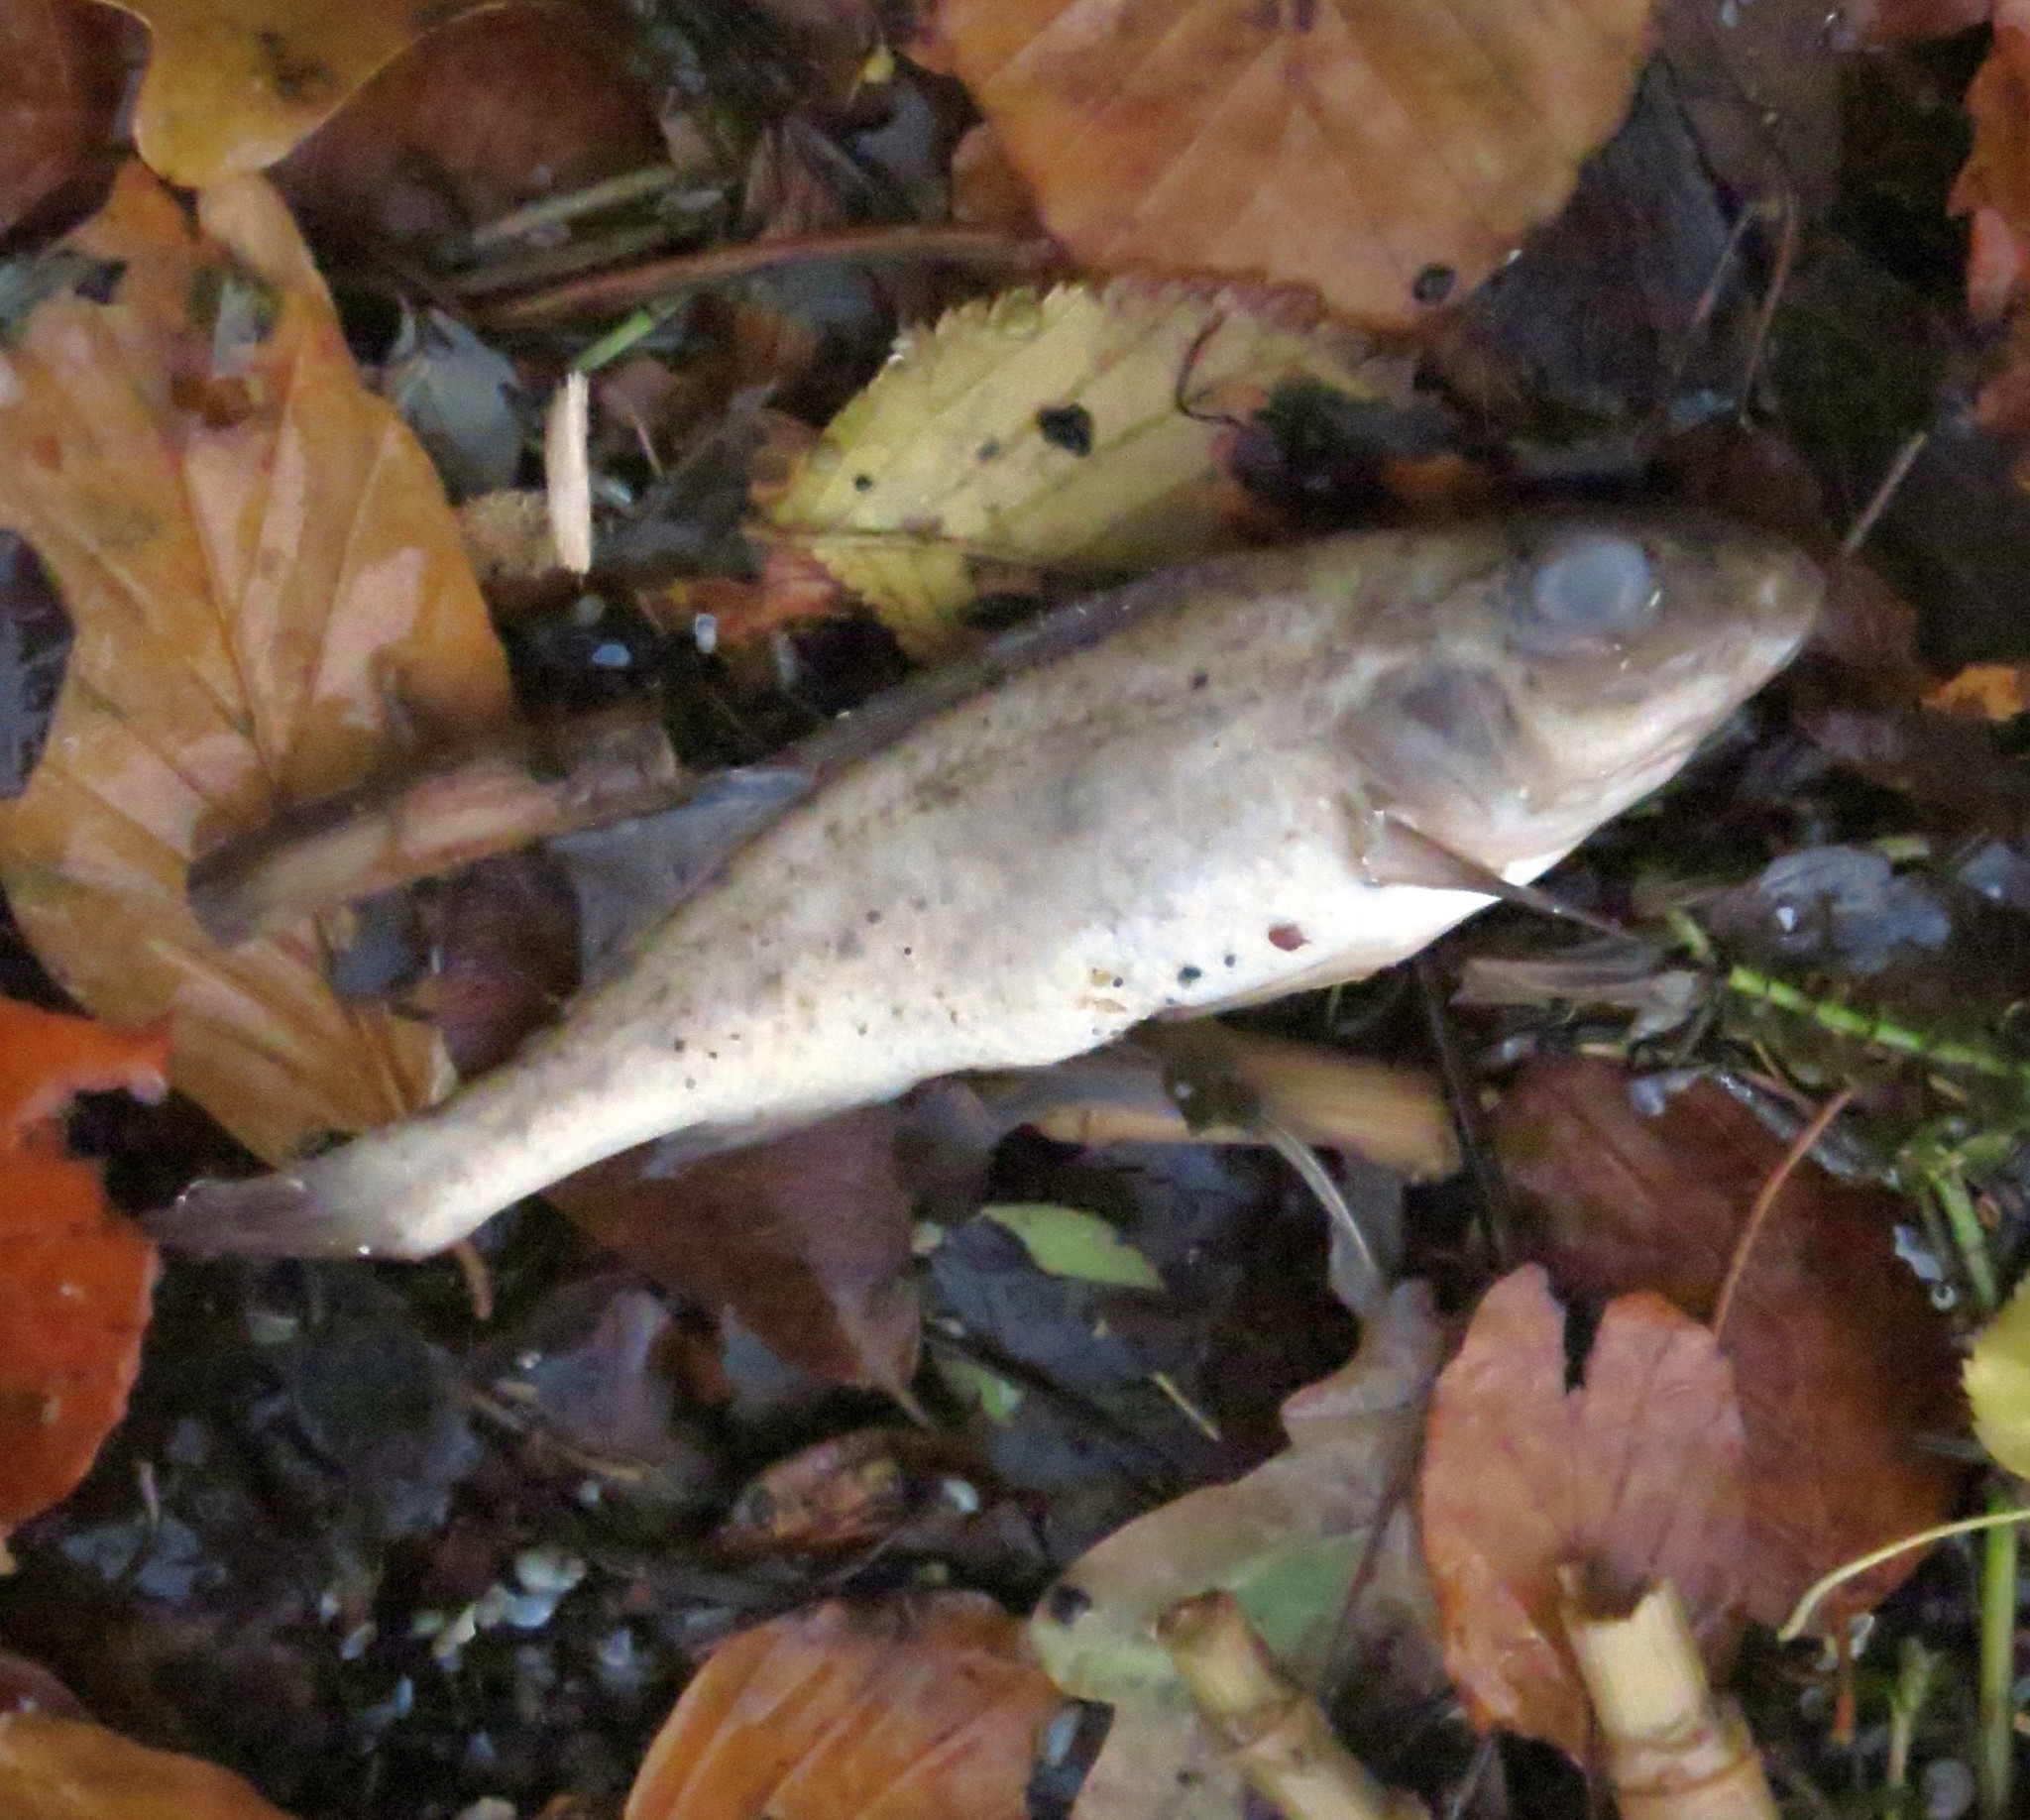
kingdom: Animalia
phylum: Chordata
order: Perciformes
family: Percidae
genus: Gymnocephalus
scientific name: Gymnocephalus cernua
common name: Ruffe
